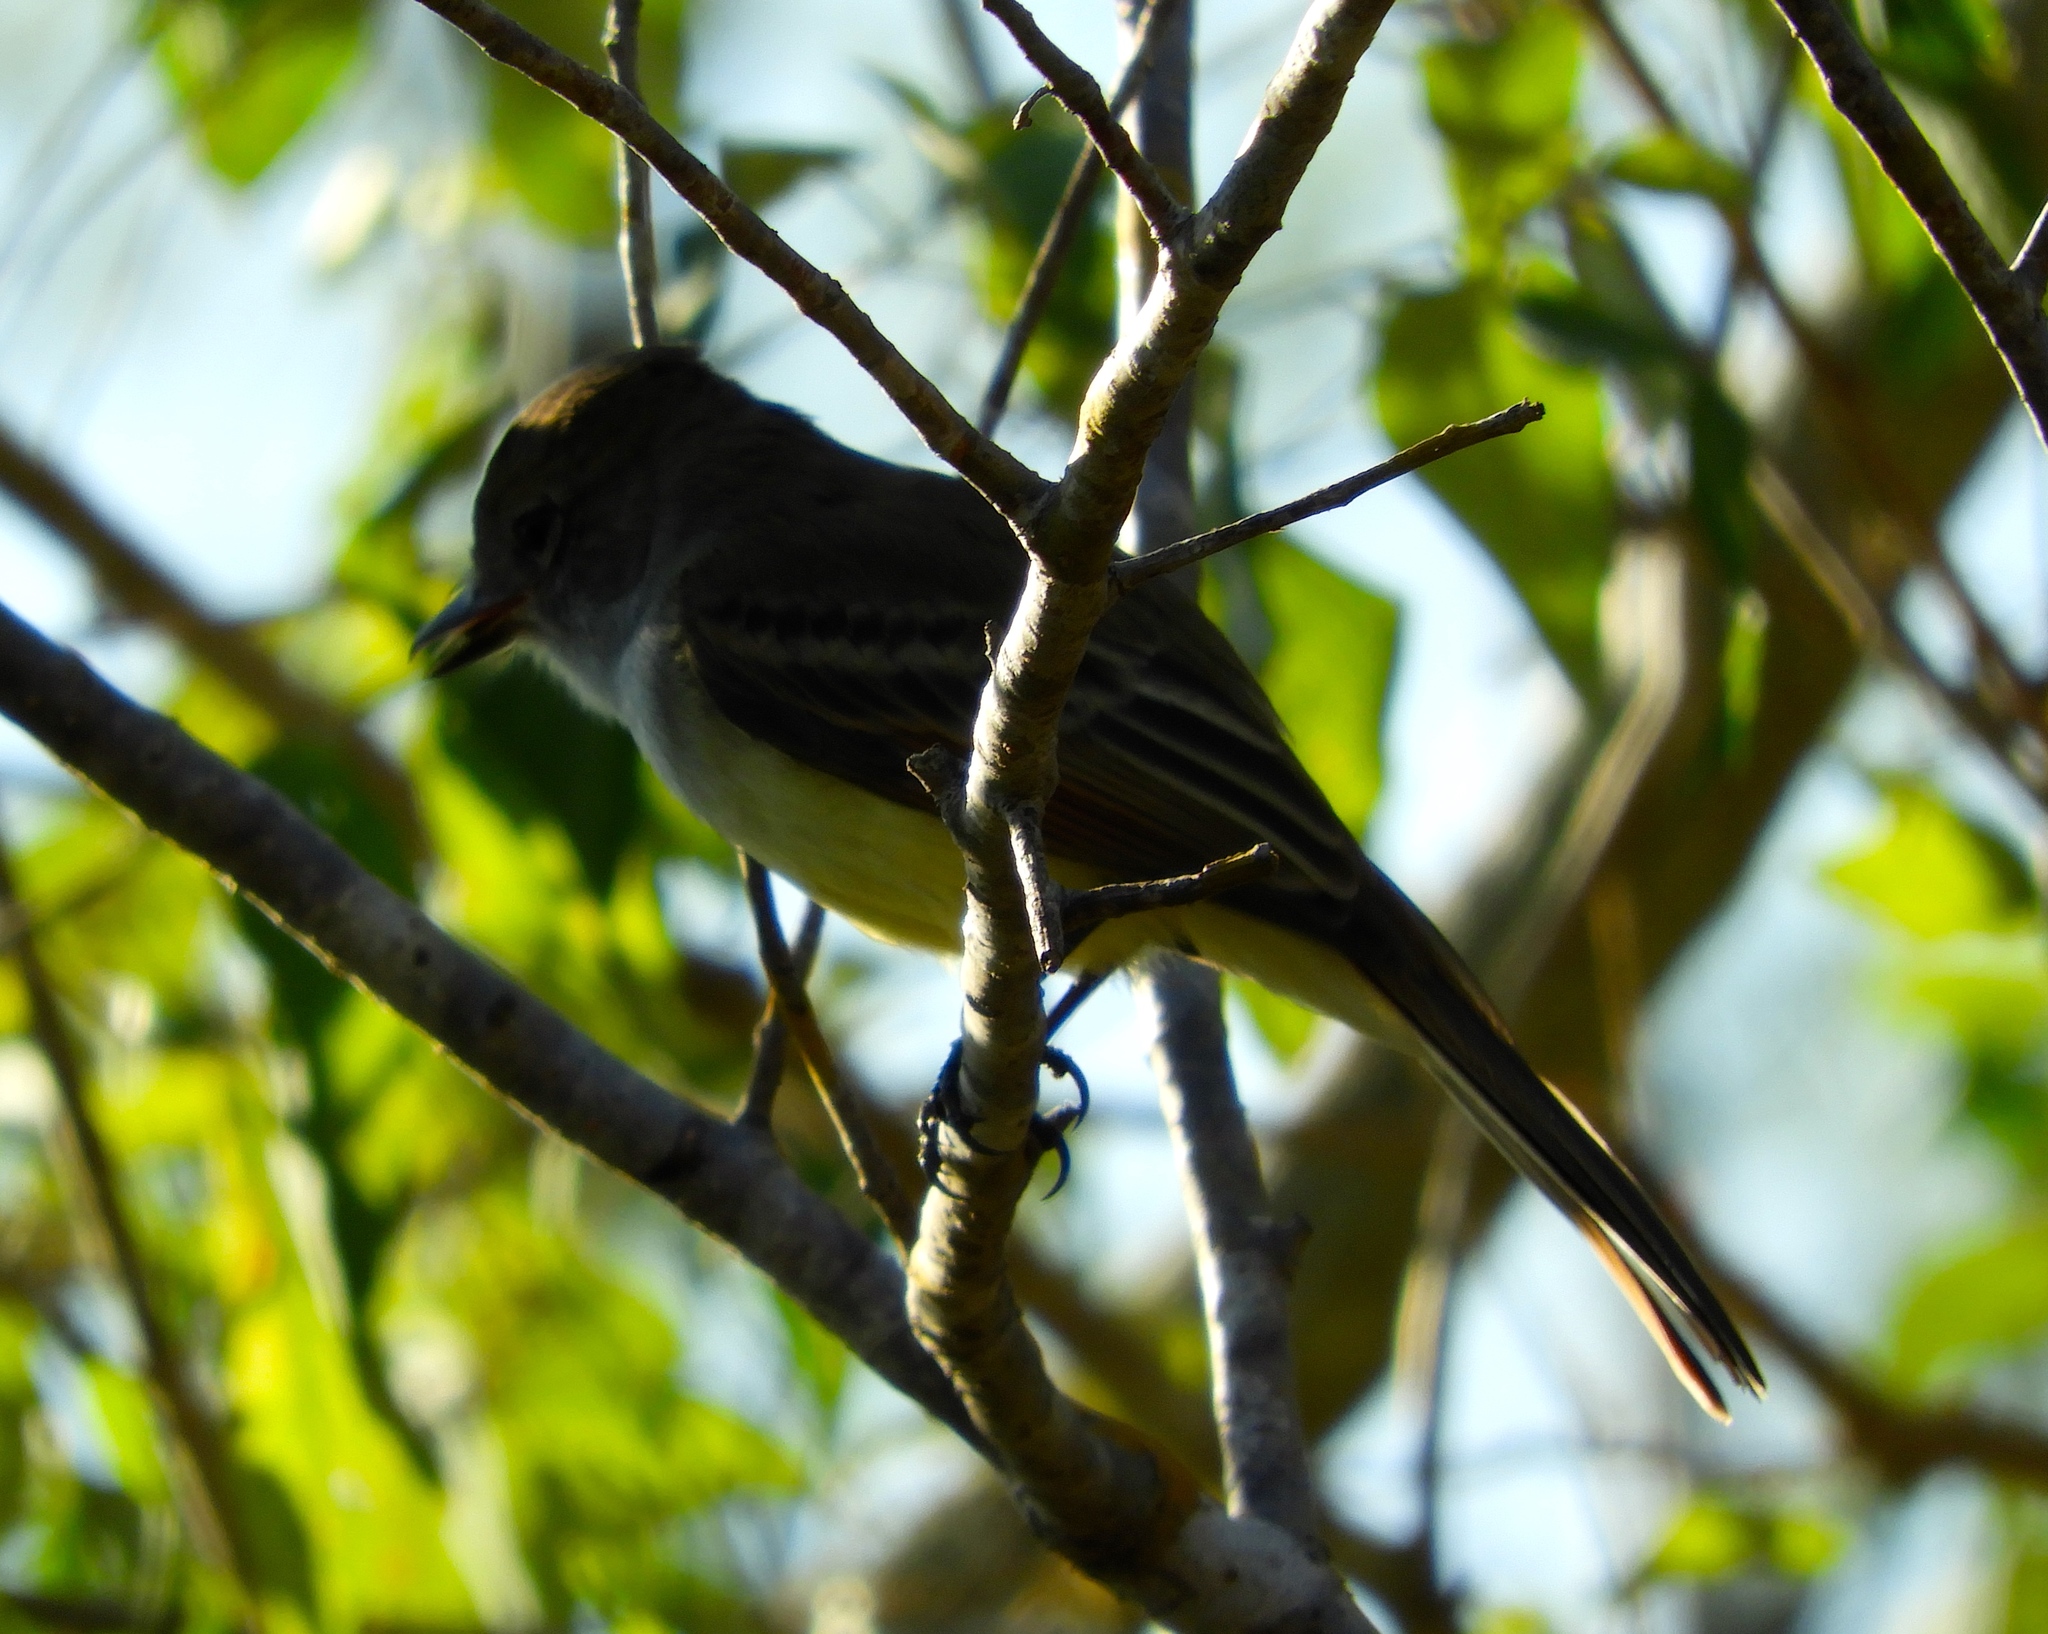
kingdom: Animalia
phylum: Chordata
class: Aves
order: Passeriformes
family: Tyrannidae
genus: Myiarchus
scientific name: Myiarchus
